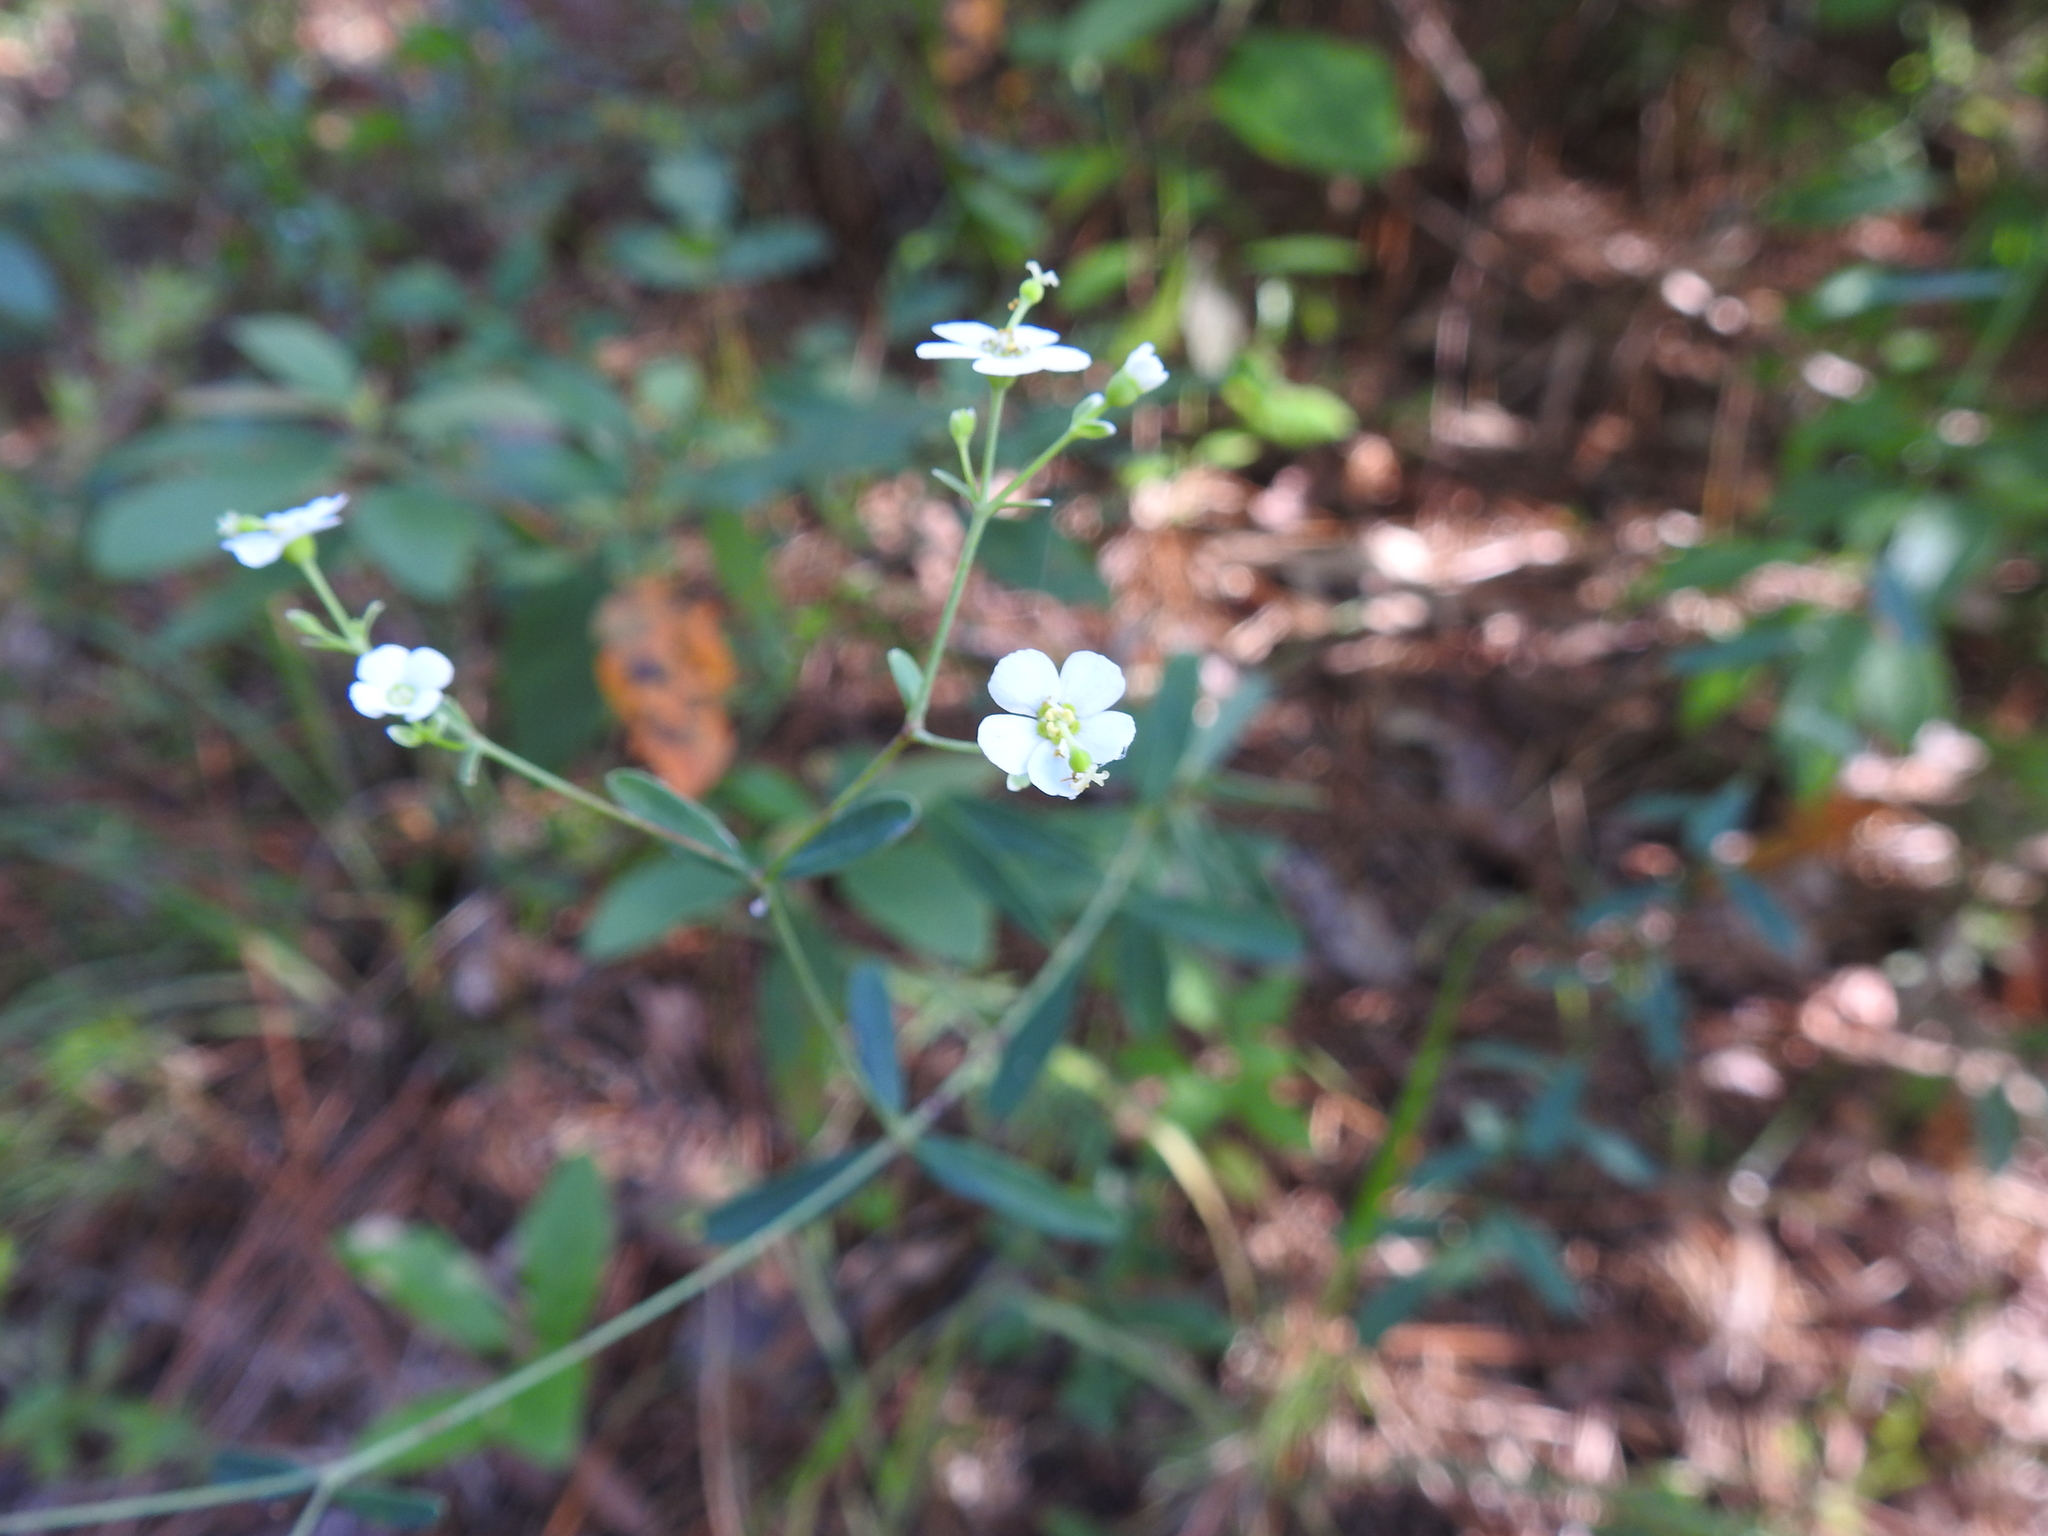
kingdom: Plantae
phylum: Tracheophyta
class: Magnoliopsida
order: Malpighiales
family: Euphorbiaceae
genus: Euphorbia
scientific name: Euphorbia corollata
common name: Flowering spurge
